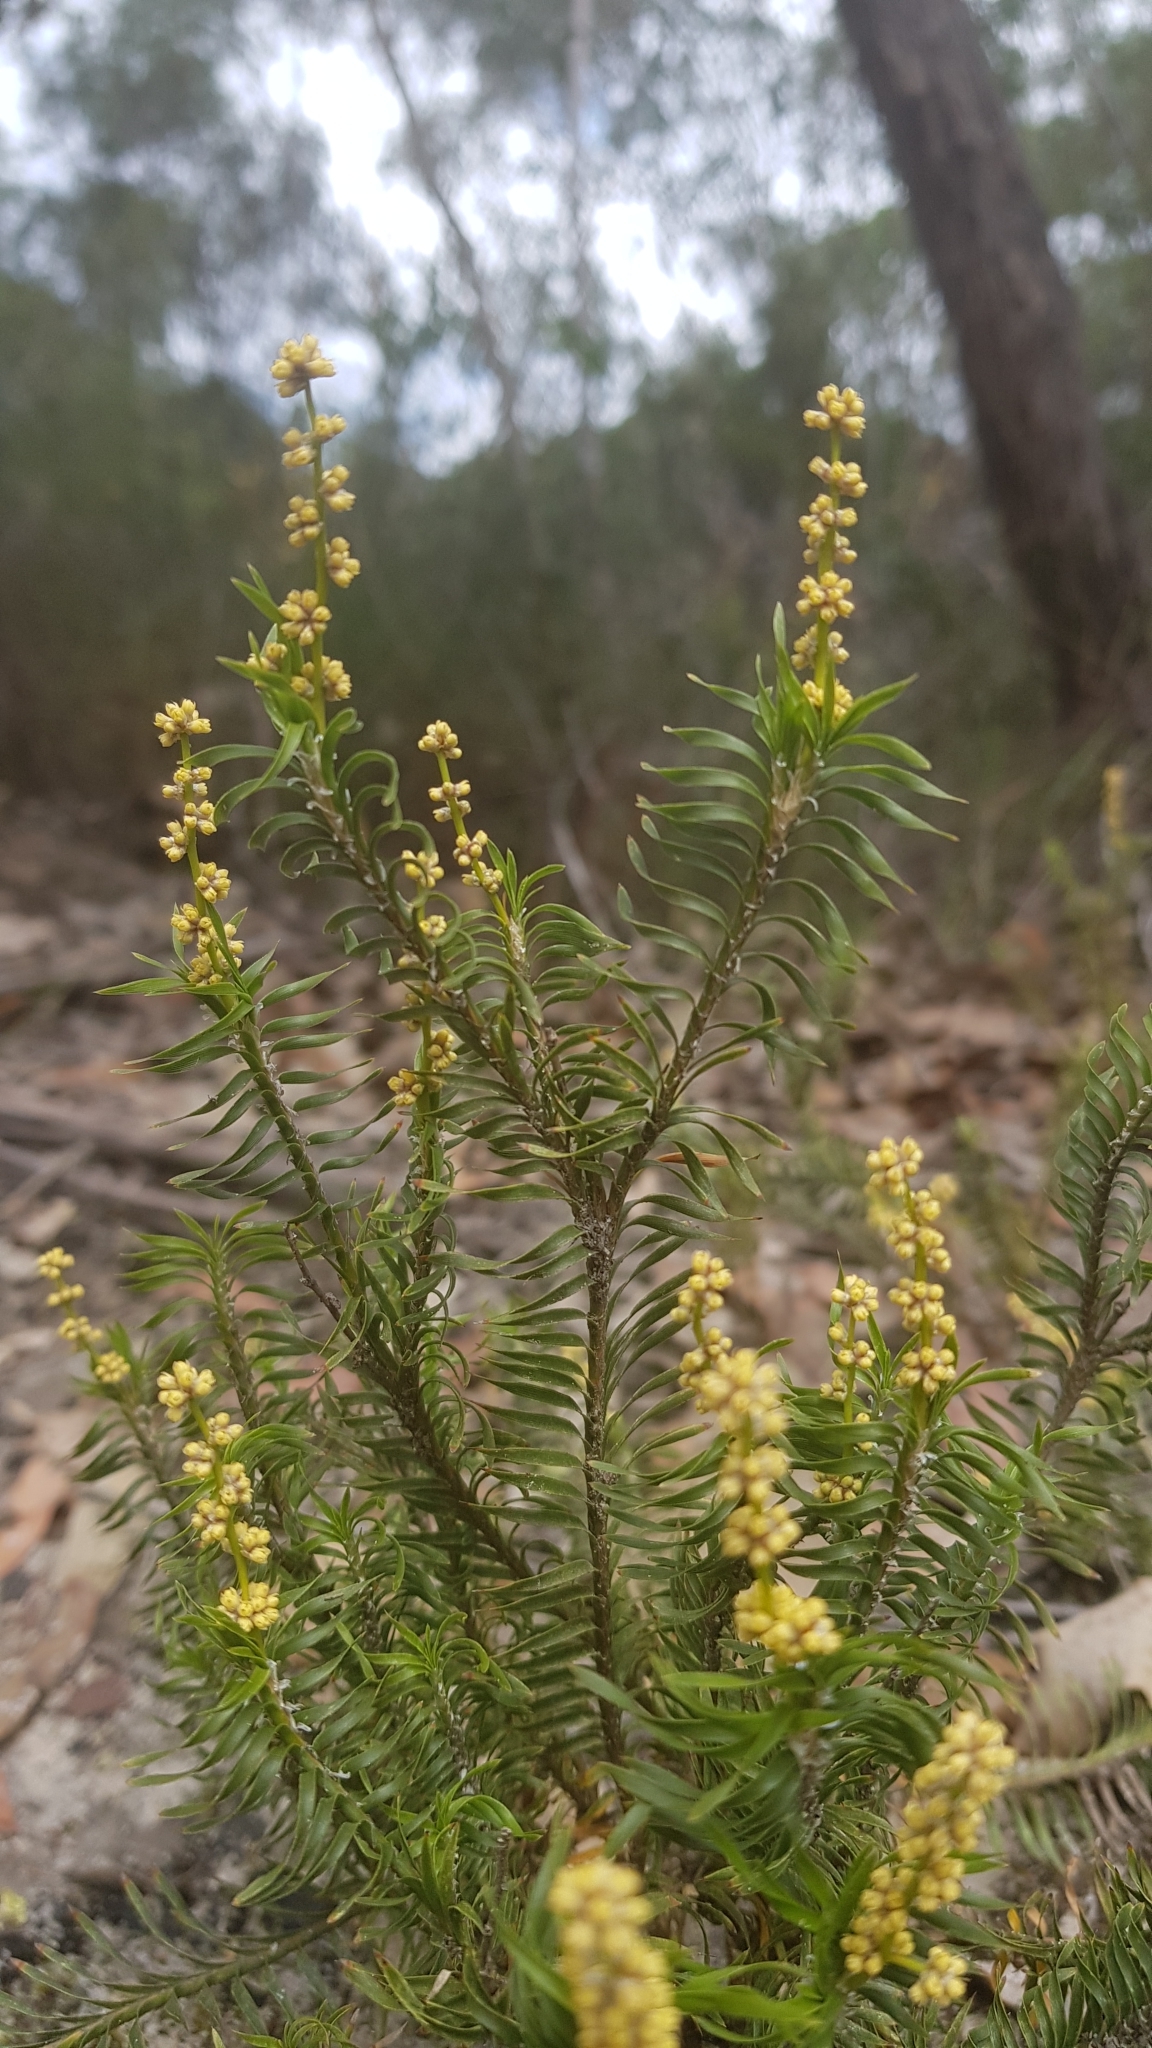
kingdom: Plantae
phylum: Tracheophyta
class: Liliopsida
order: Asparagales
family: Asparagaceae
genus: Lomandra
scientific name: Lomandra obliqua
